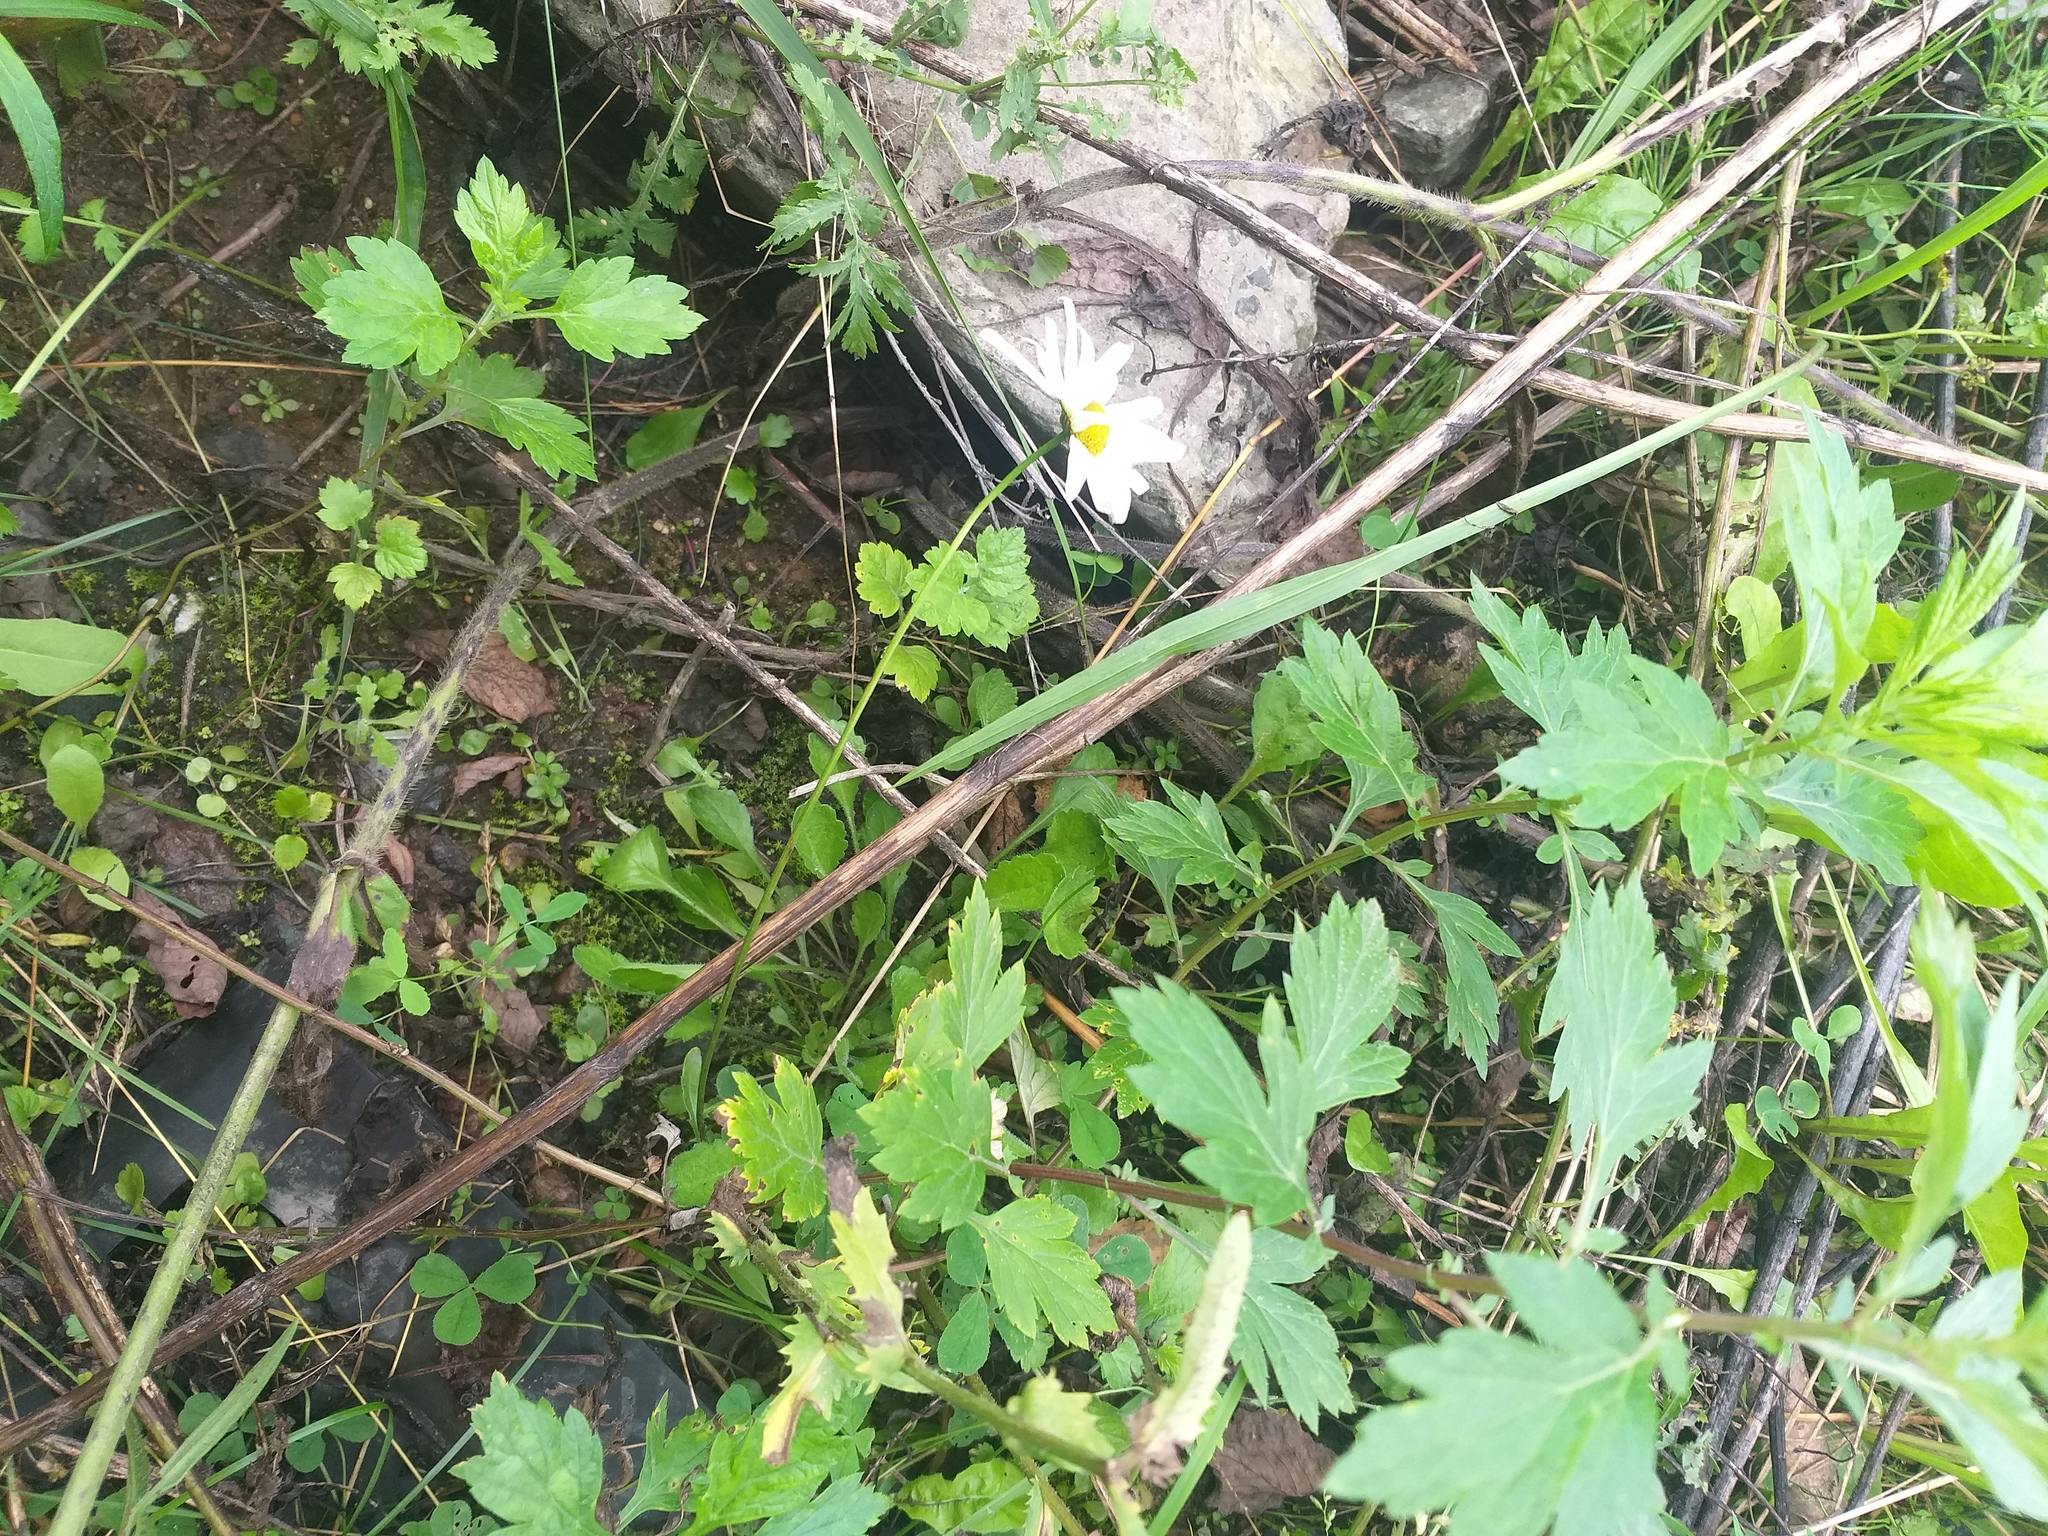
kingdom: Plantae
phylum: Tracheophyta
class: Magnoliopsida
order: Asterales
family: Asteraceae
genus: Leucanthemum
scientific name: Leucanthemum vulgare
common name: Oxeye daisy
